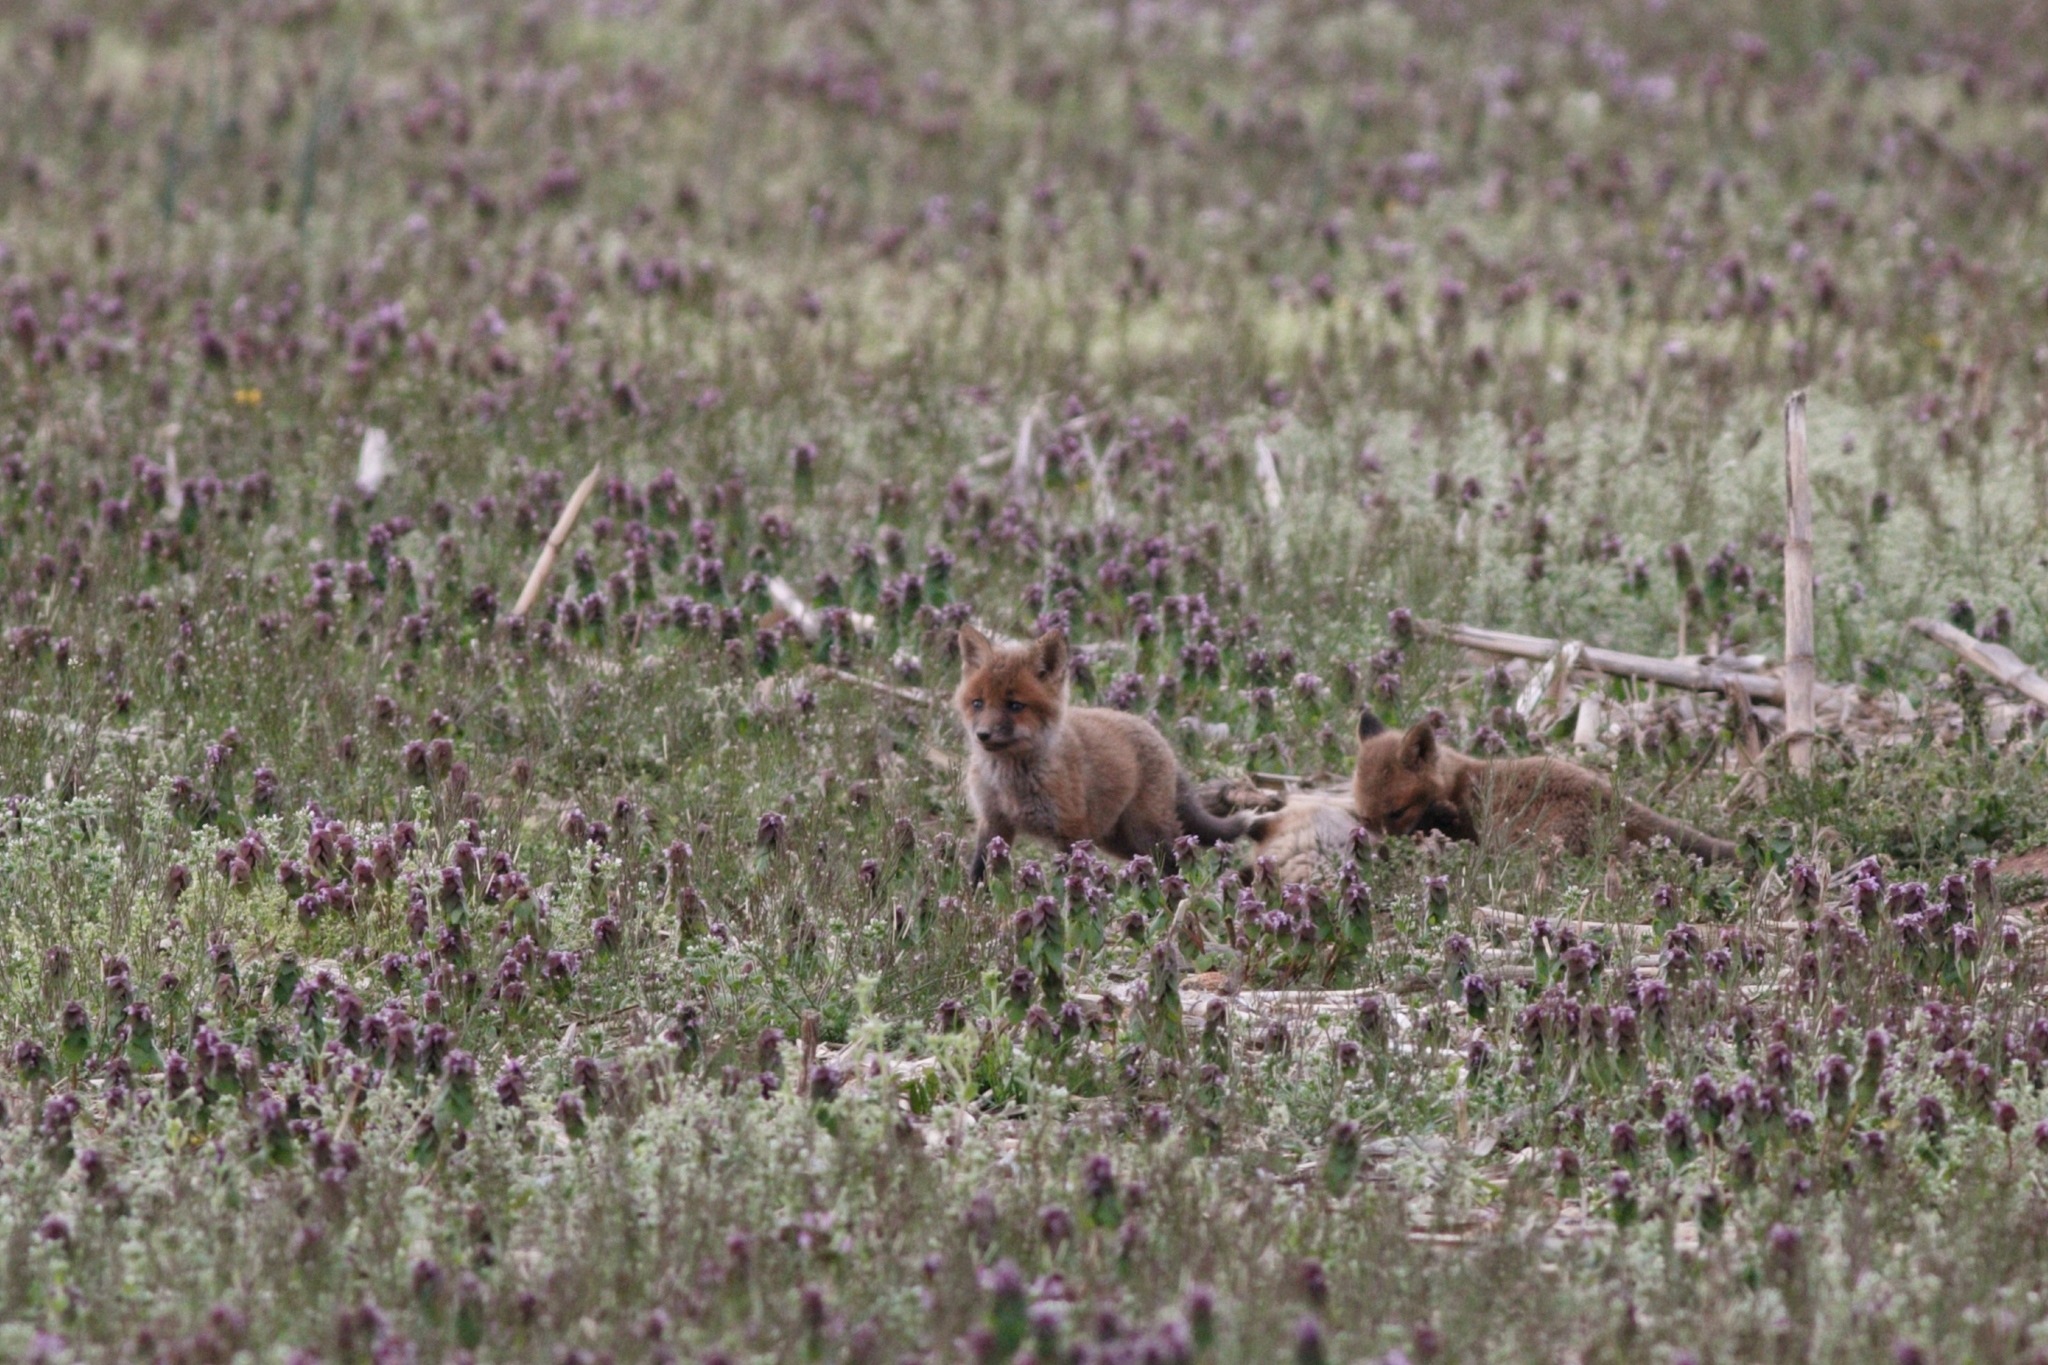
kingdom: Animalia
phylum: Chordata
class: Mammalia
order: Carnivora
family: Canidae
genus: Vulpes
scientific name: Vulpes vulpes
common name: Red fox
